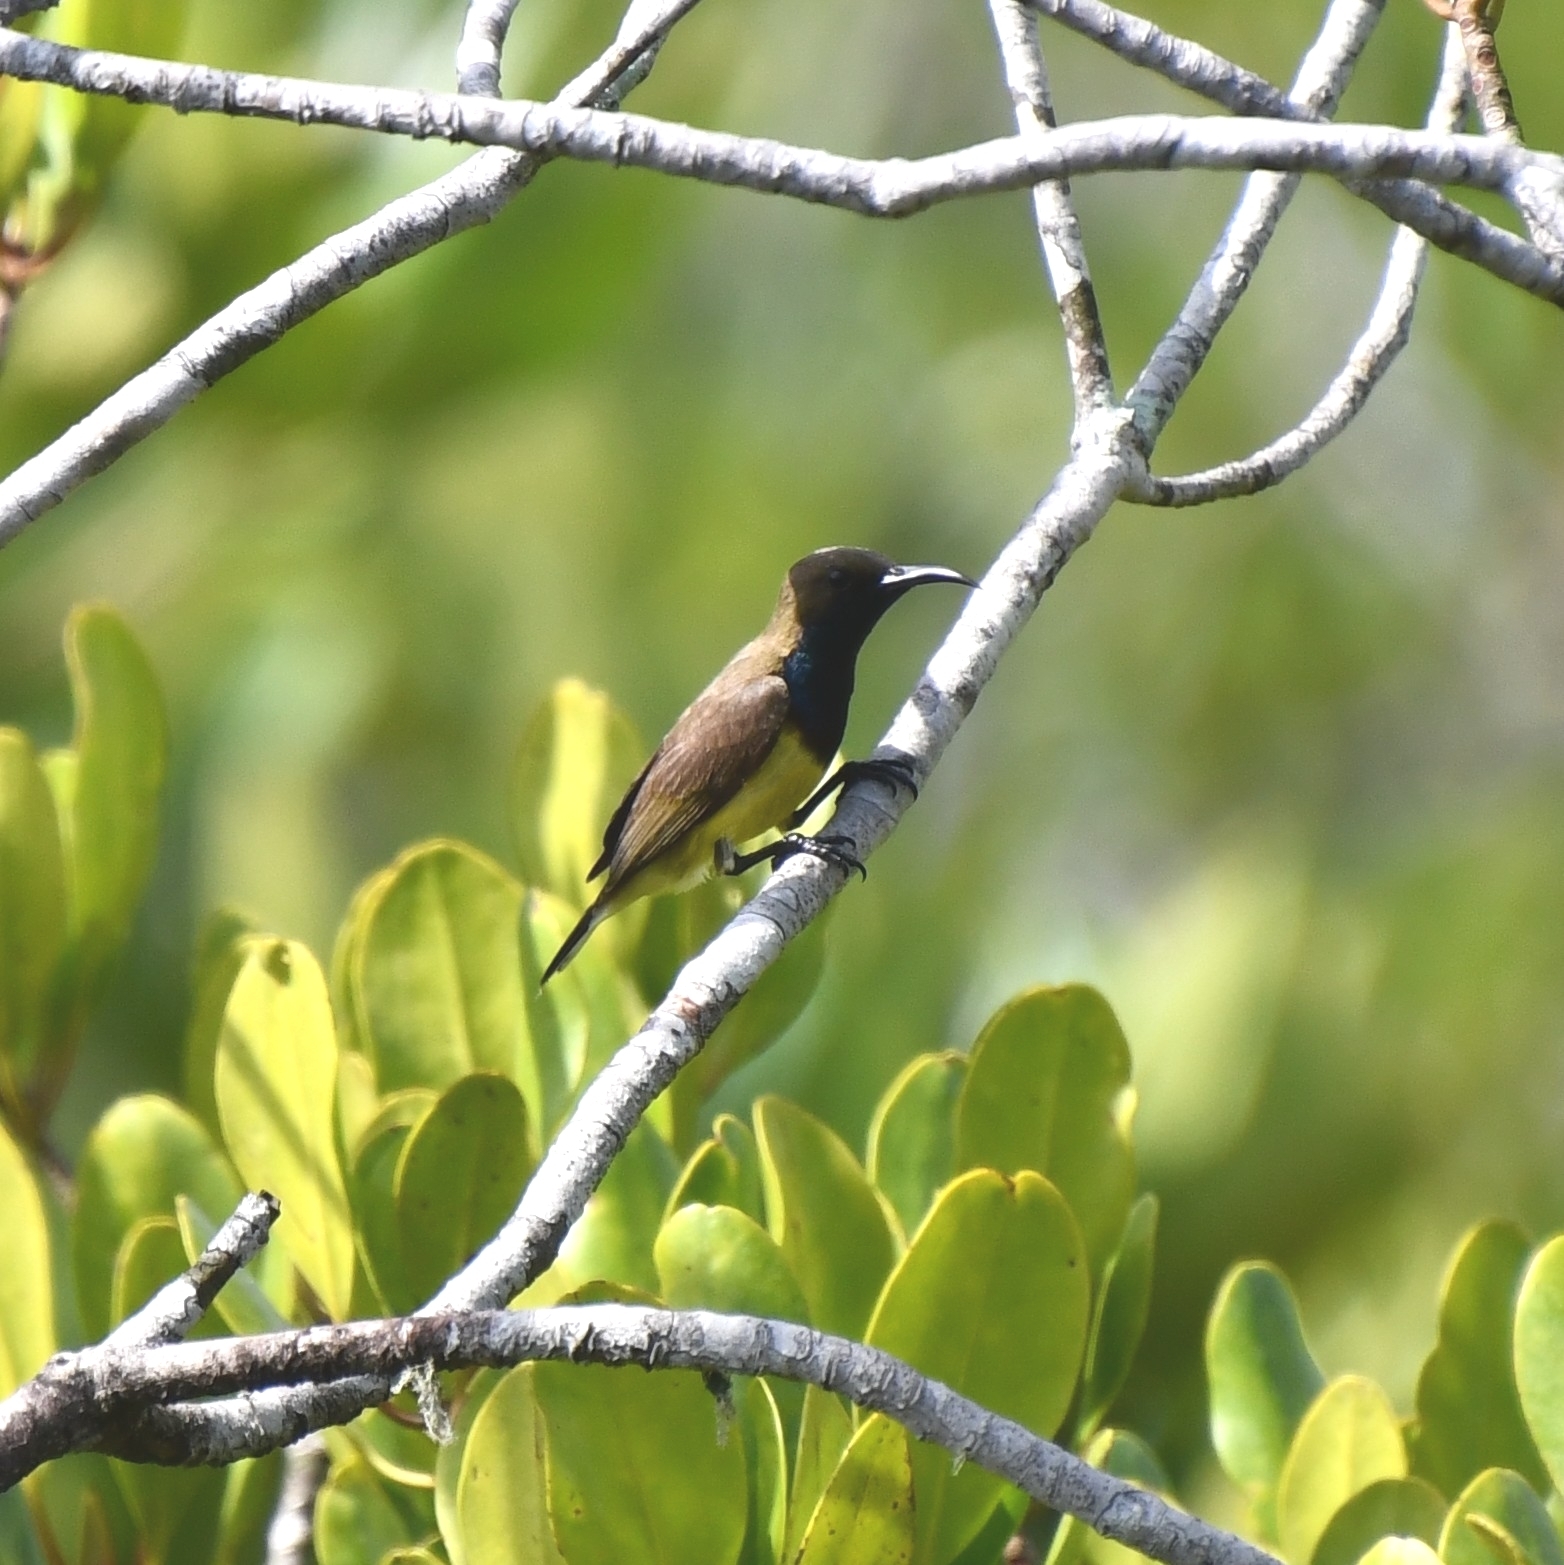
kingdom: Animalia
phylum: Chordata
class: Aves
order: Passeriformes
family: Nectariniidae
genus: Cinnyris
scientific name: Cinnyris
